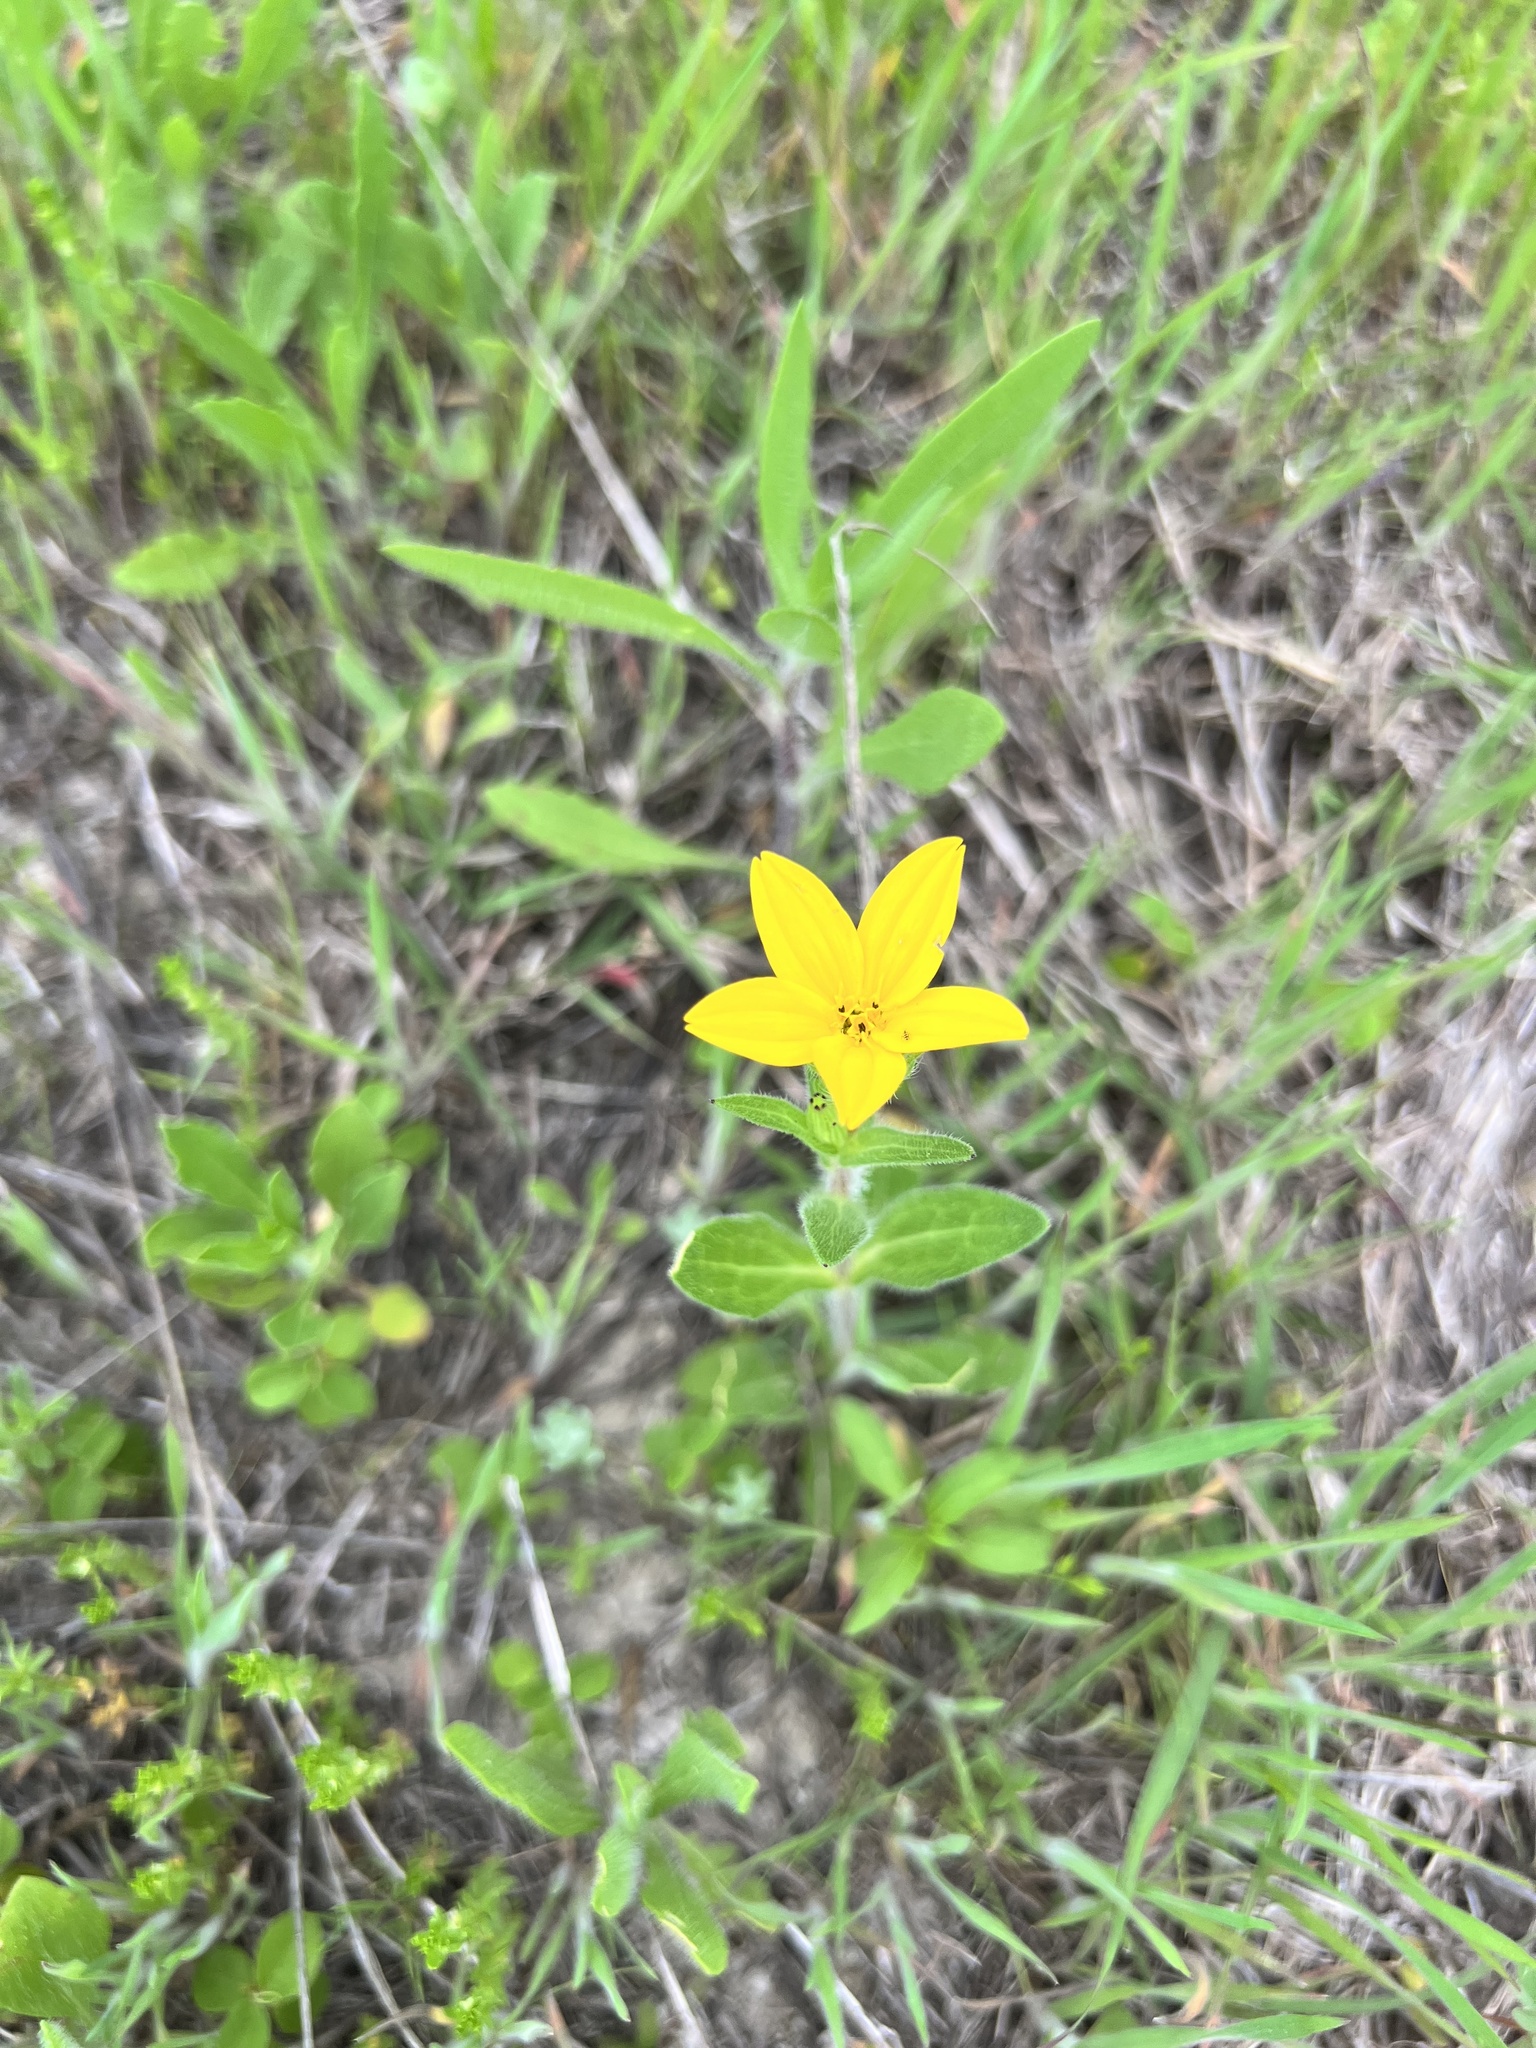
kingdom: Plantae
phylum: Tracheophyta
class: Magnoliopsida
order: Asterales
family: Asteraceae
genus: Lindheimera
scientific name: Lindheimera texana
